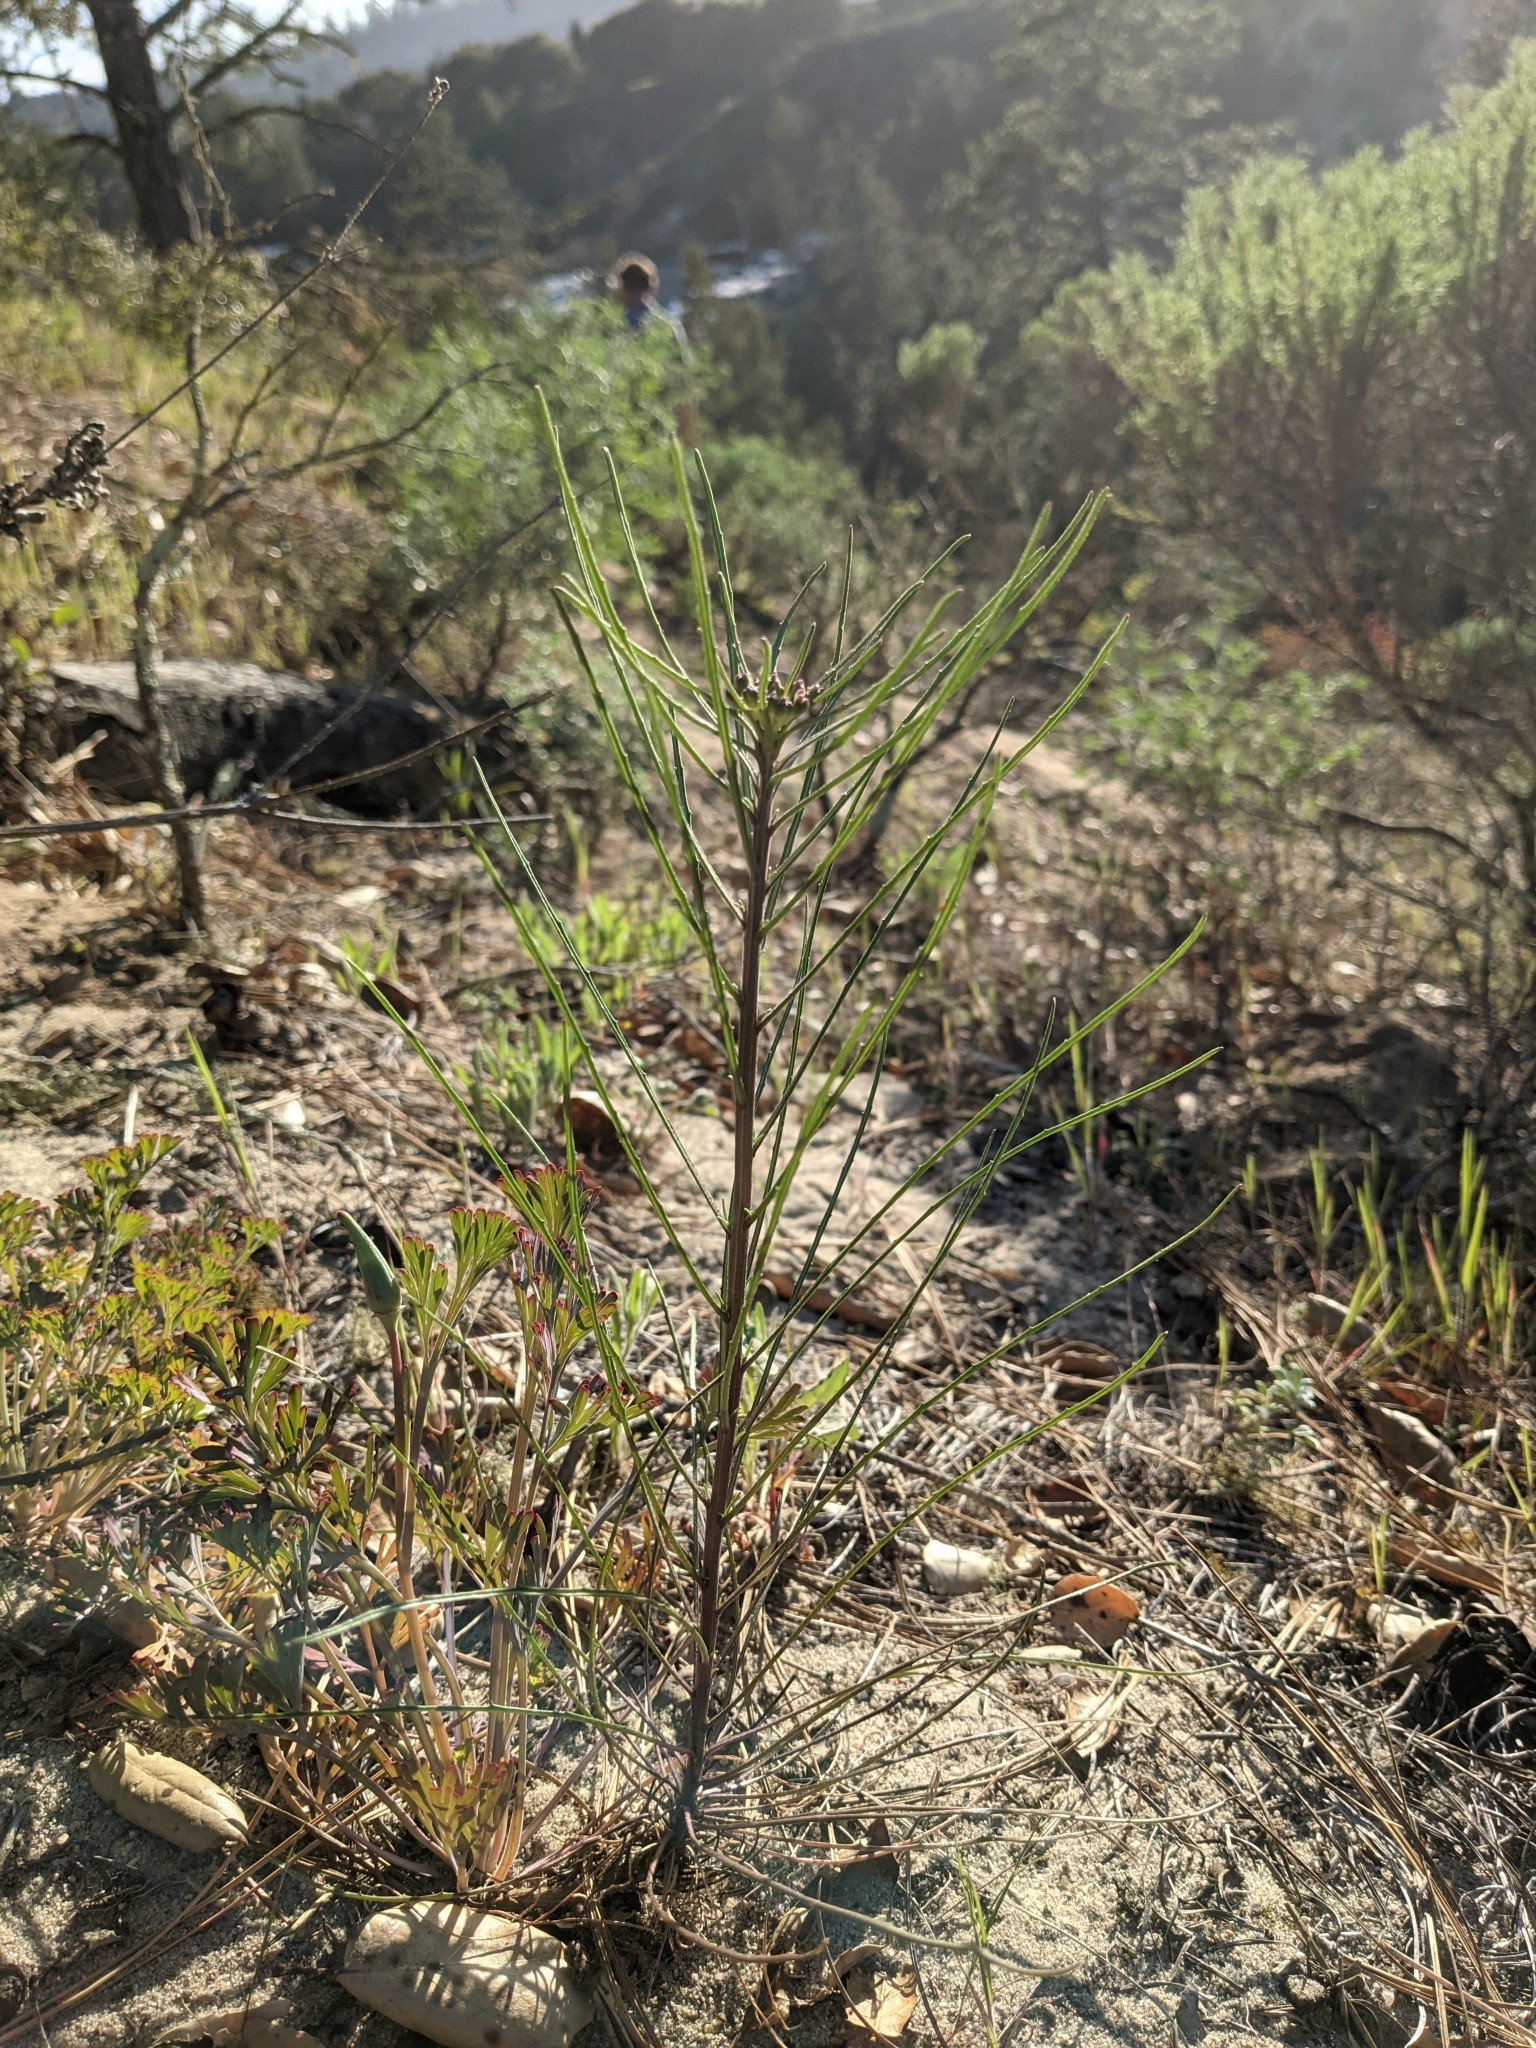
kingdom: Plantae
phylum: Tracheophyta
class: Magnoliopsida
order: Brassicales
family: Brassicaceae
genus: Erysimum
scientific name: Erysimum teretifolium
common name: Ben lomond wallflower
